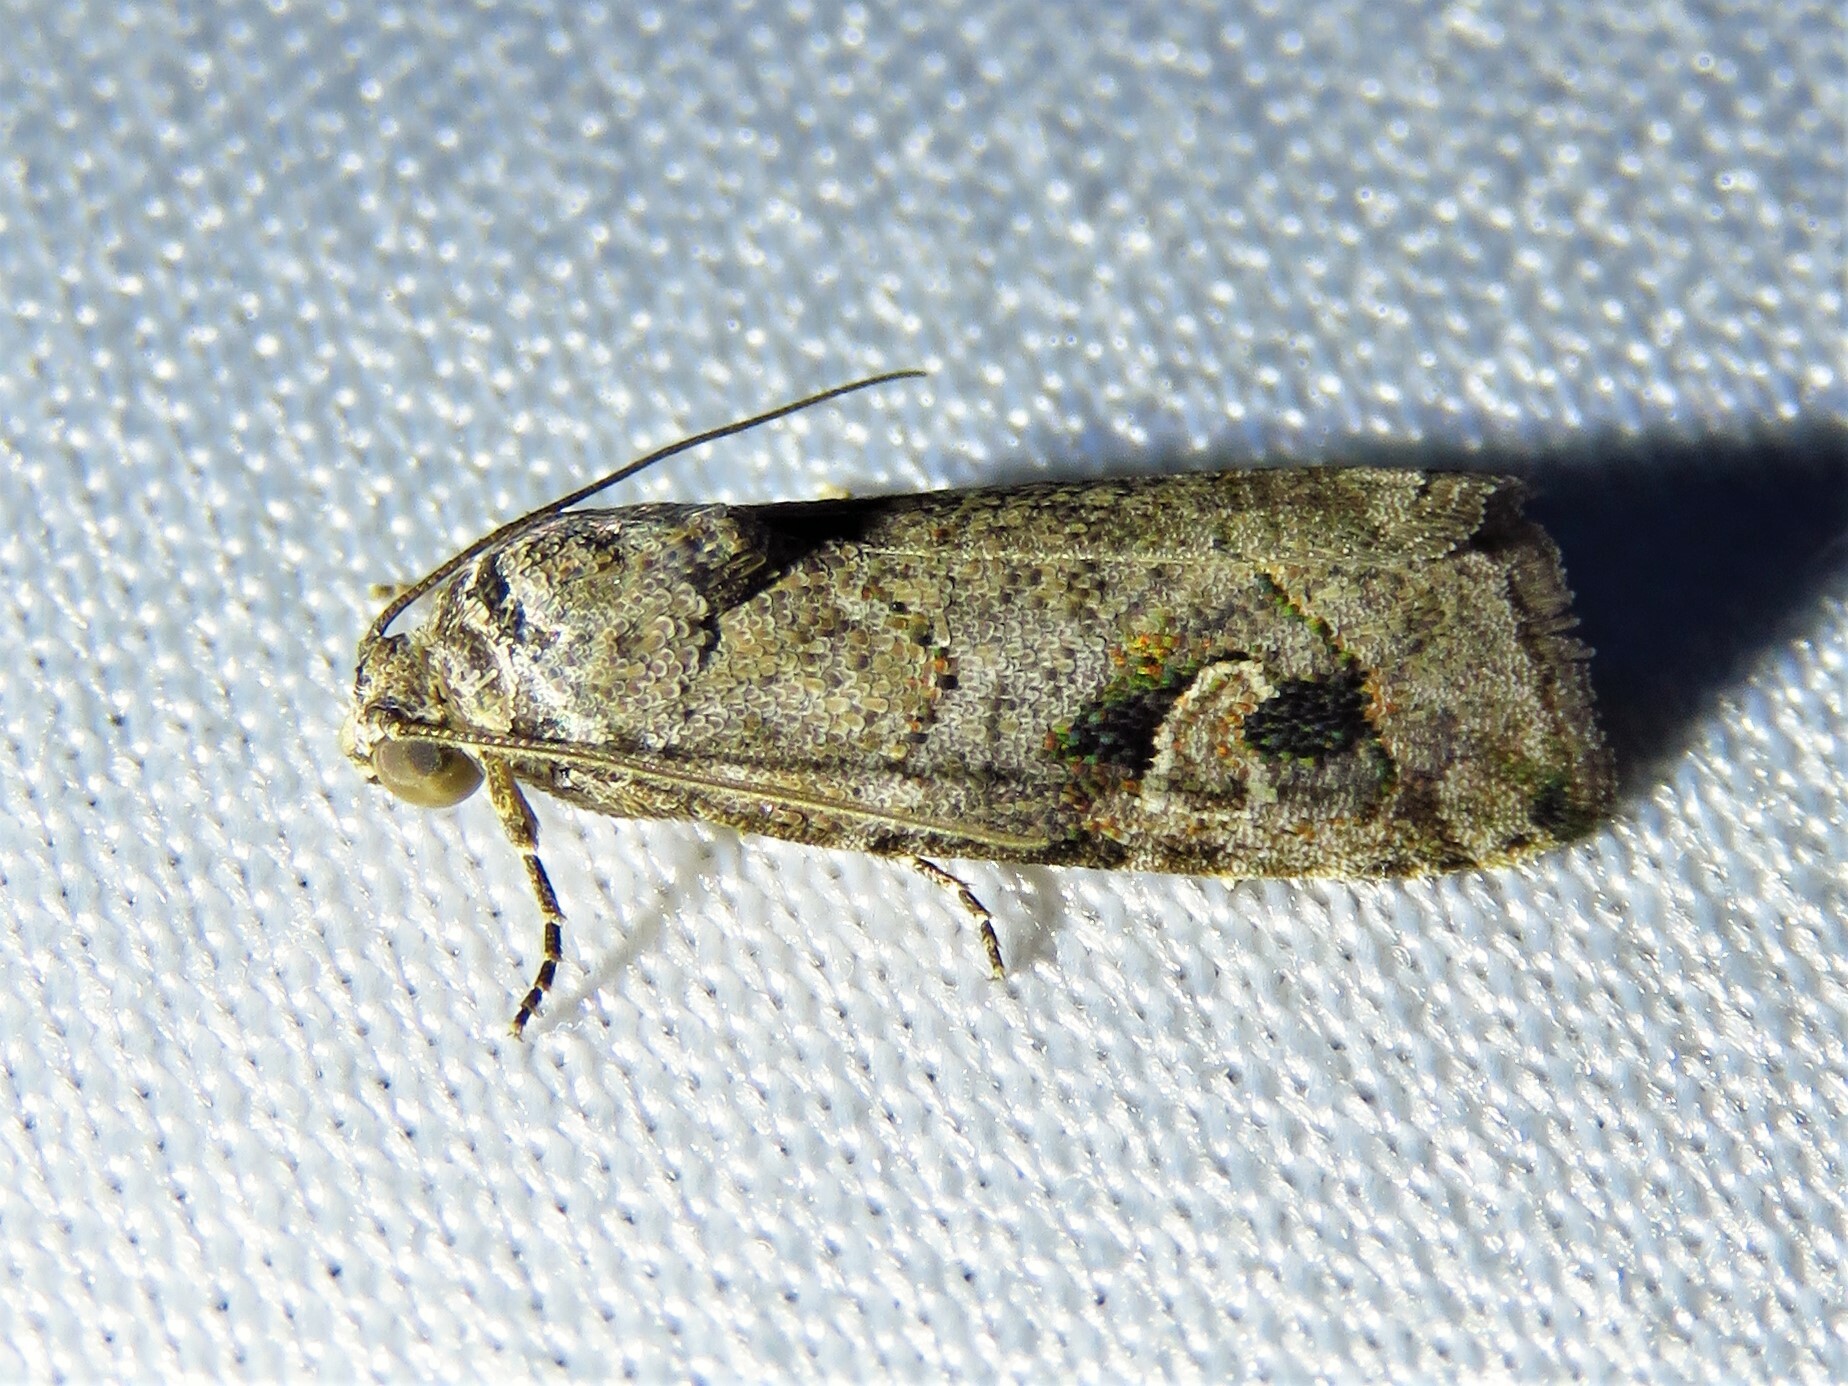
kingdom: Animalia
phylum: Arthropoda
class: Insecta
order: Lepidoptera
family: Noctuidae
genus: Metaponpneumata
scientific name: Metaponpneumata rogenhoferi
